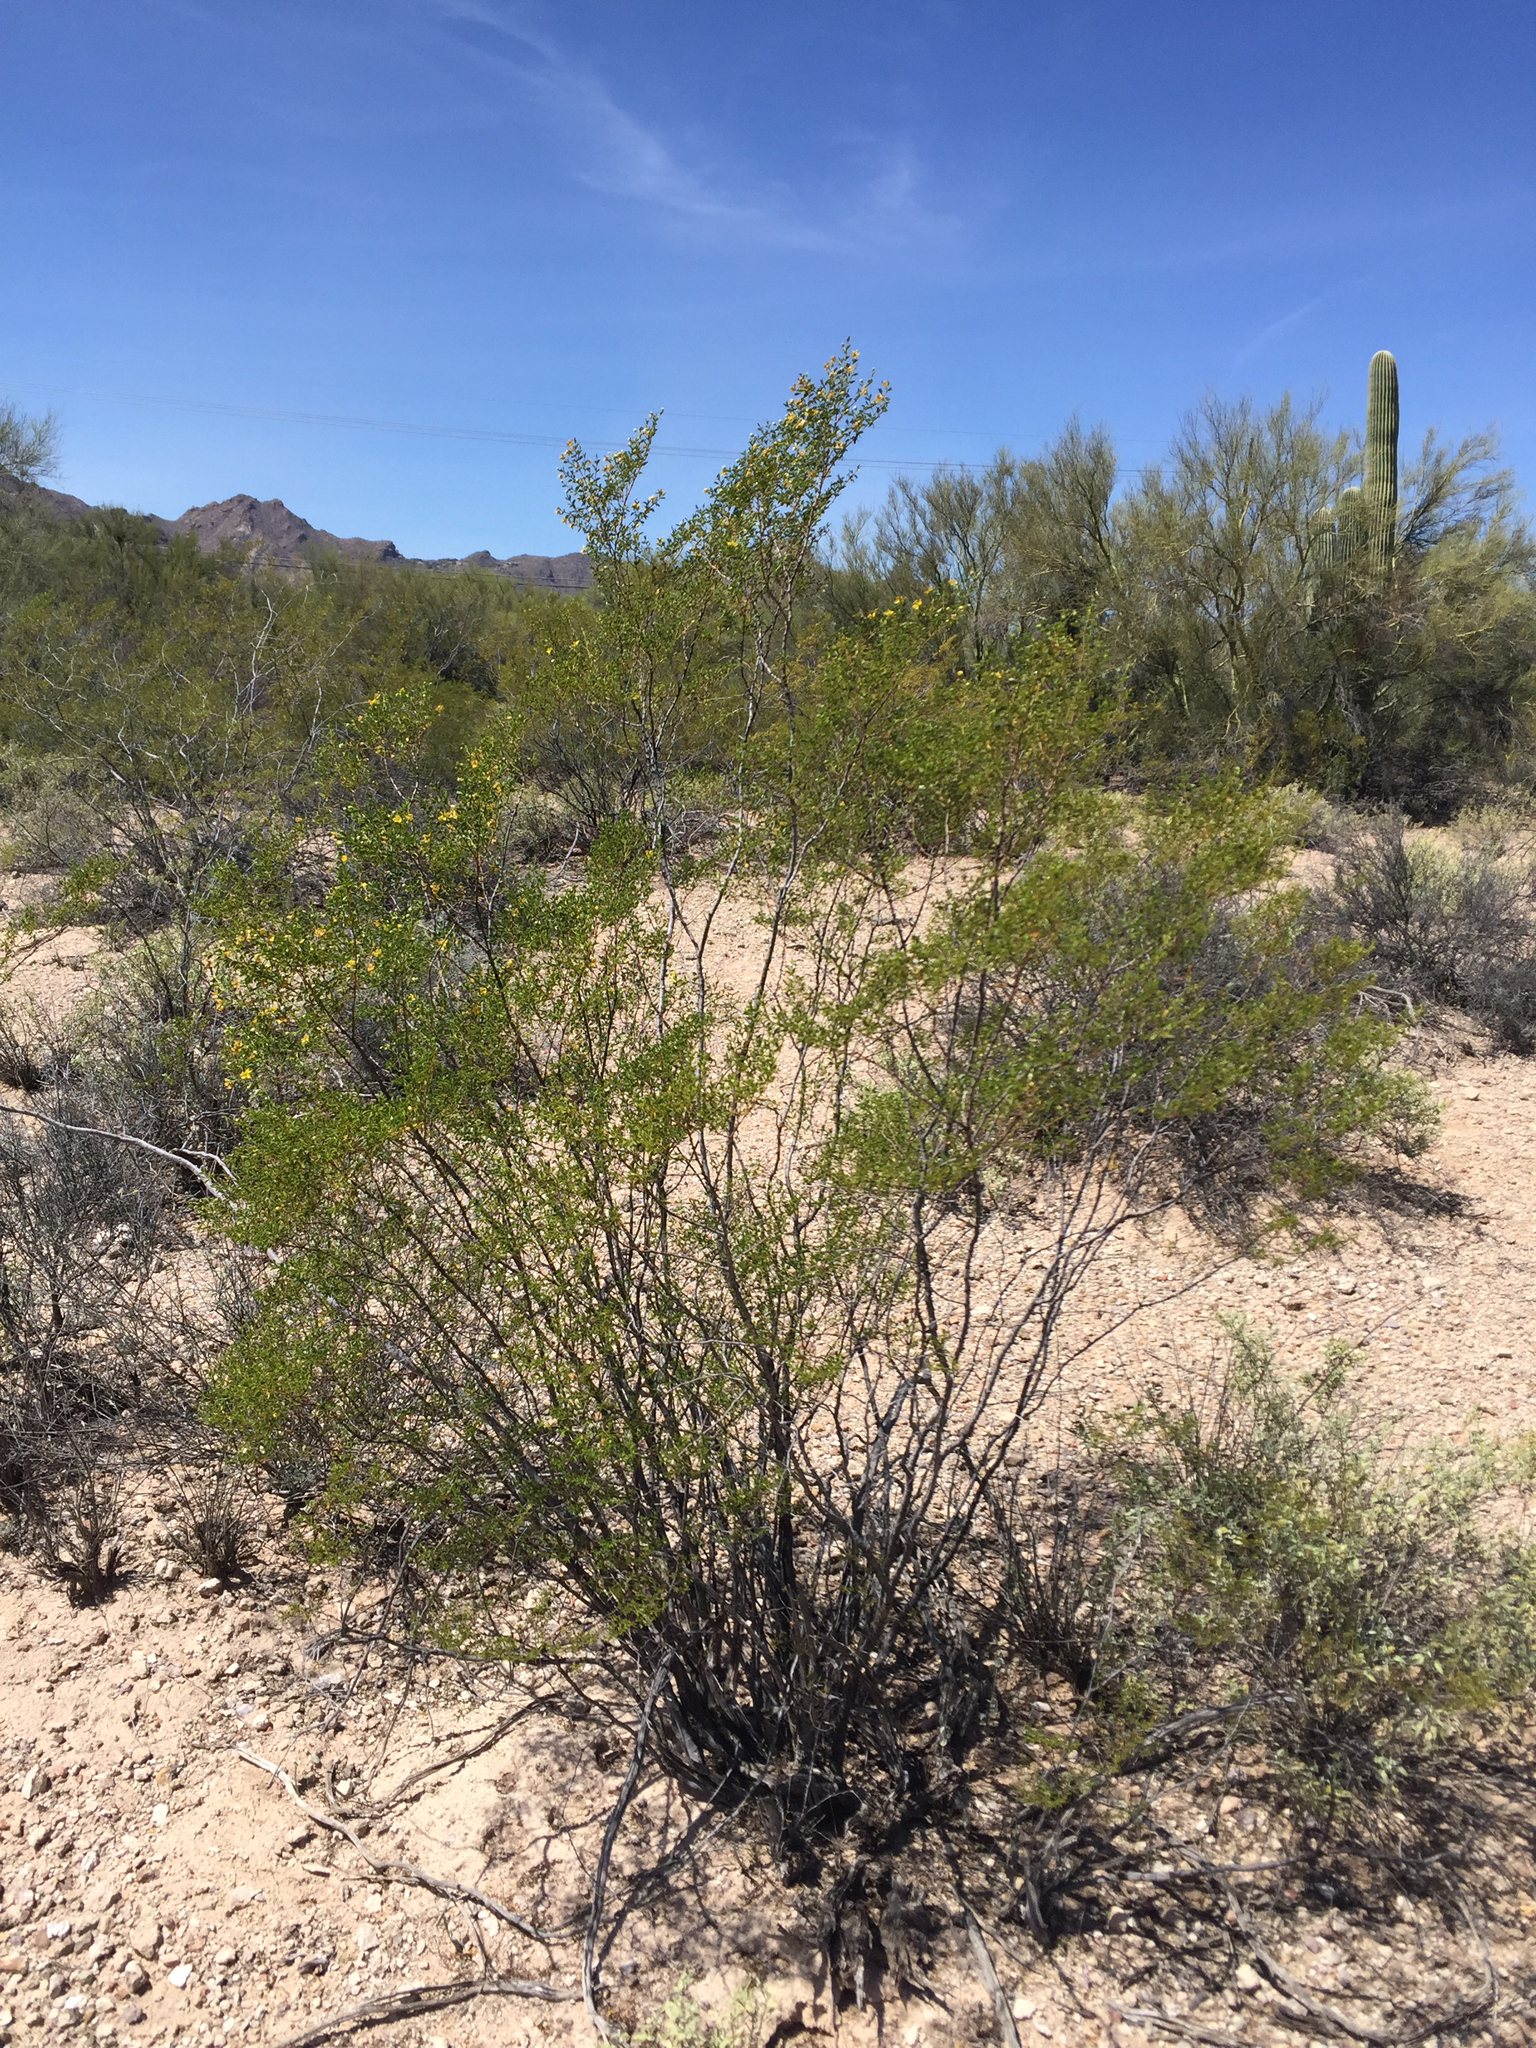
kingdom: Plantae
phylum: Tracheophyta
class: Magnoliopsida
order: Zygophyllales
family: Zygophyllaceae
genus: Larrea
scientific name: Larrea tridentata
